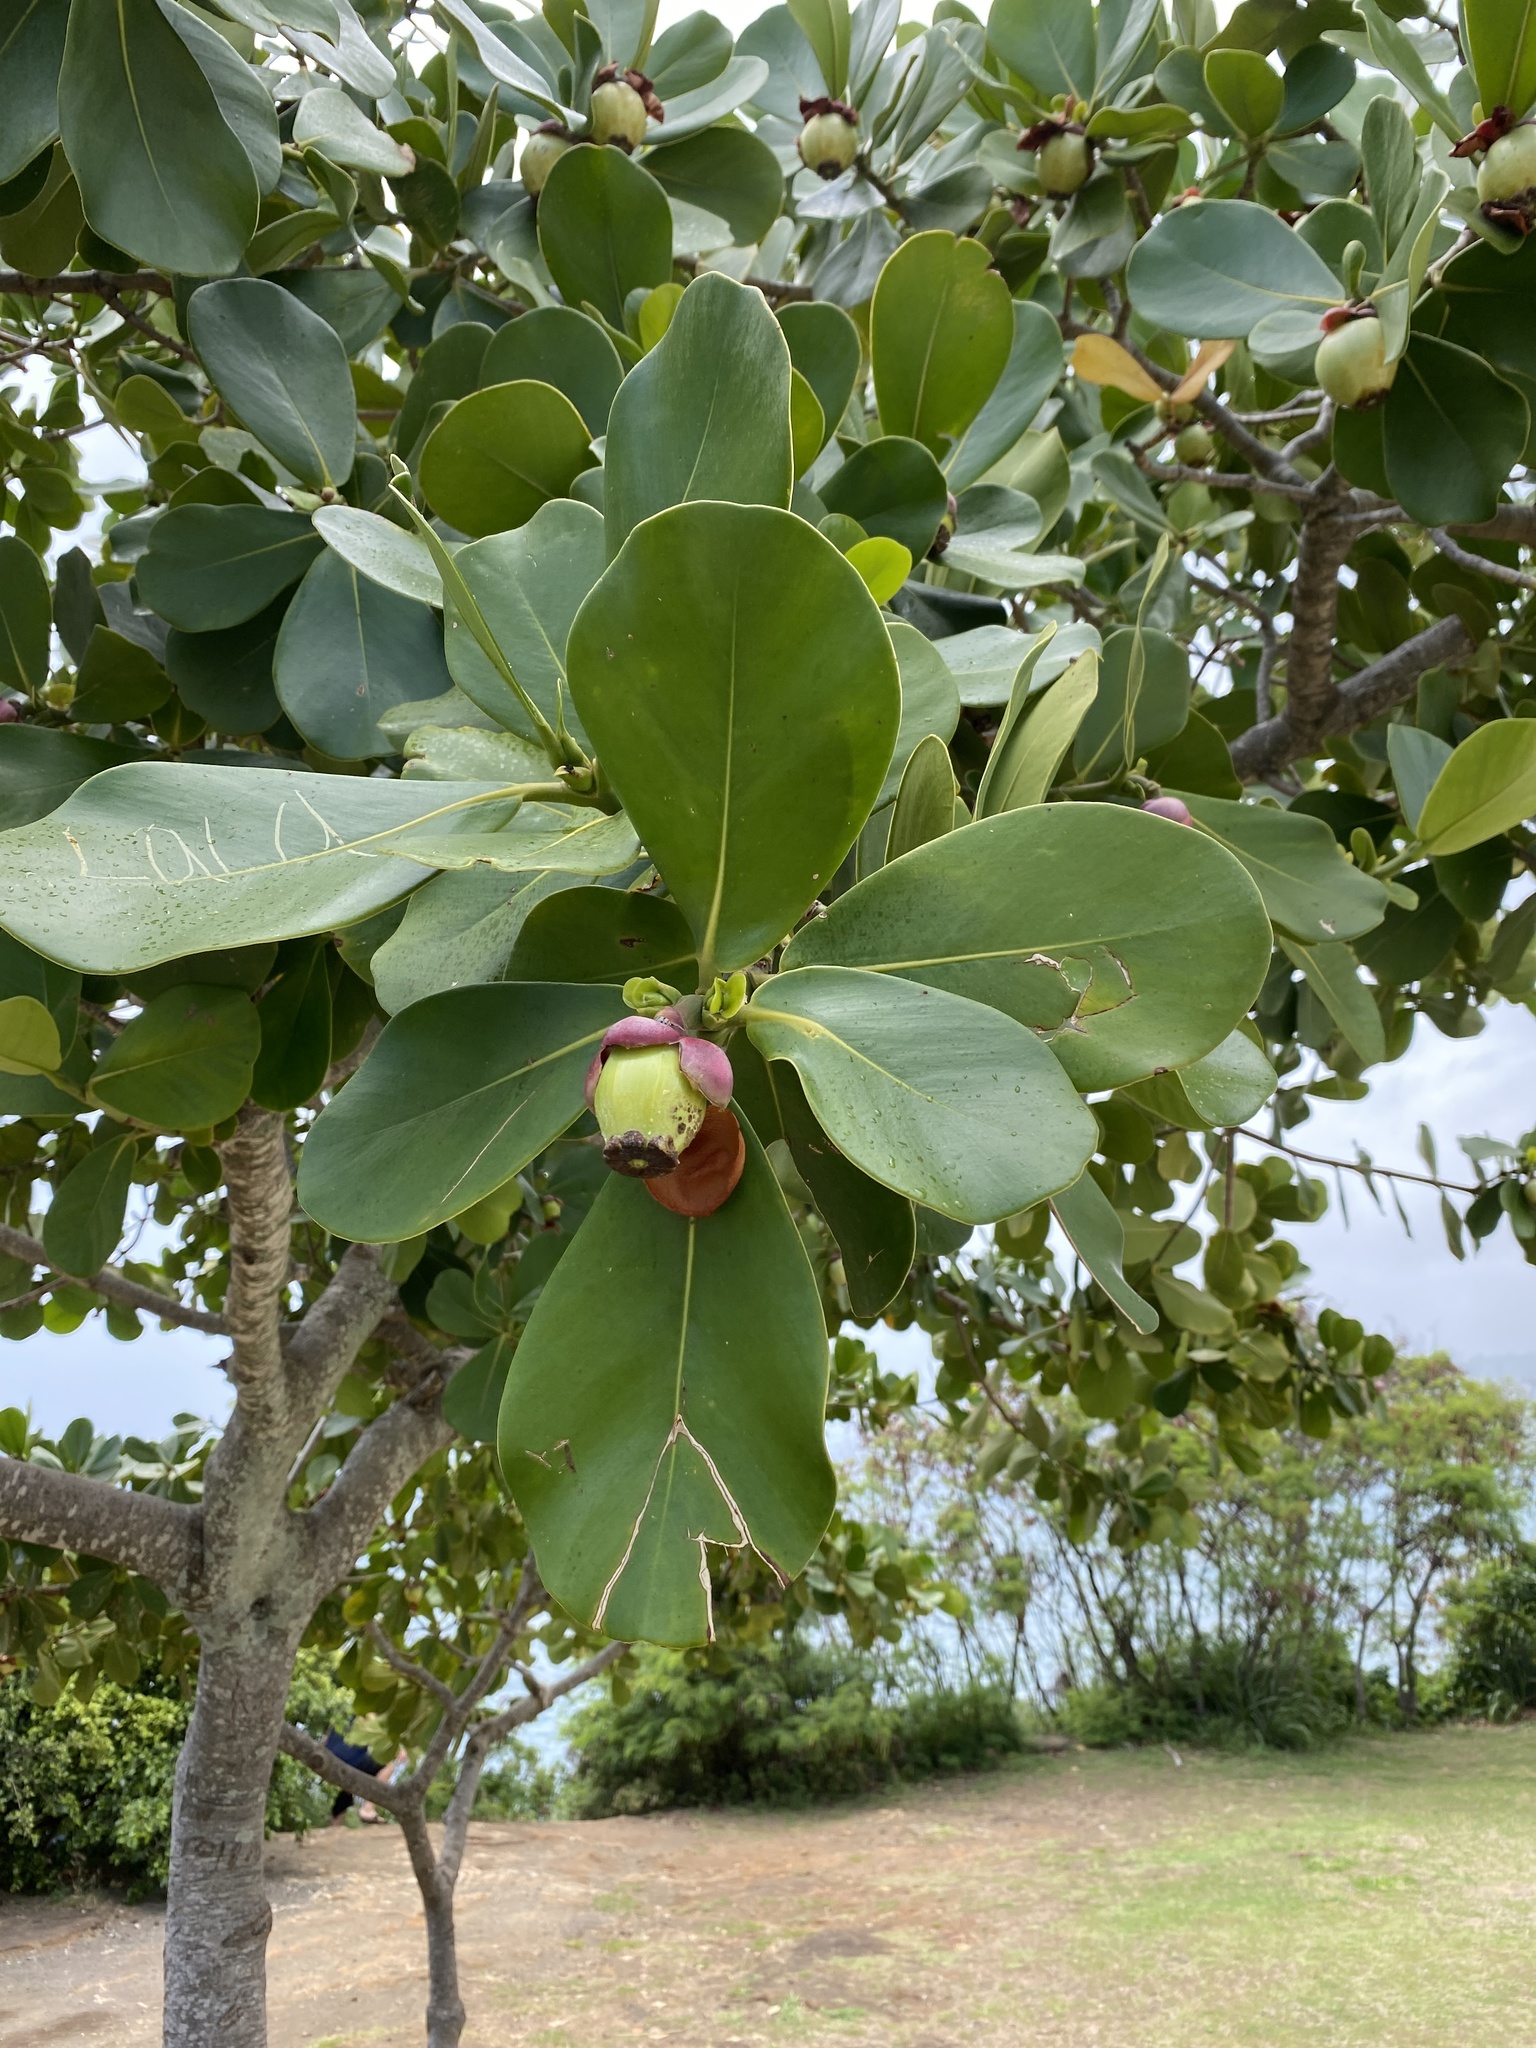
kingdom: Plantae
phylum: Tracheophyta
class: Magnoliopsida
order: Malpighiales
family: Clusiaceae
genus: Clusia
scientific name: Clusia rosea
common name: Scotch attorney
